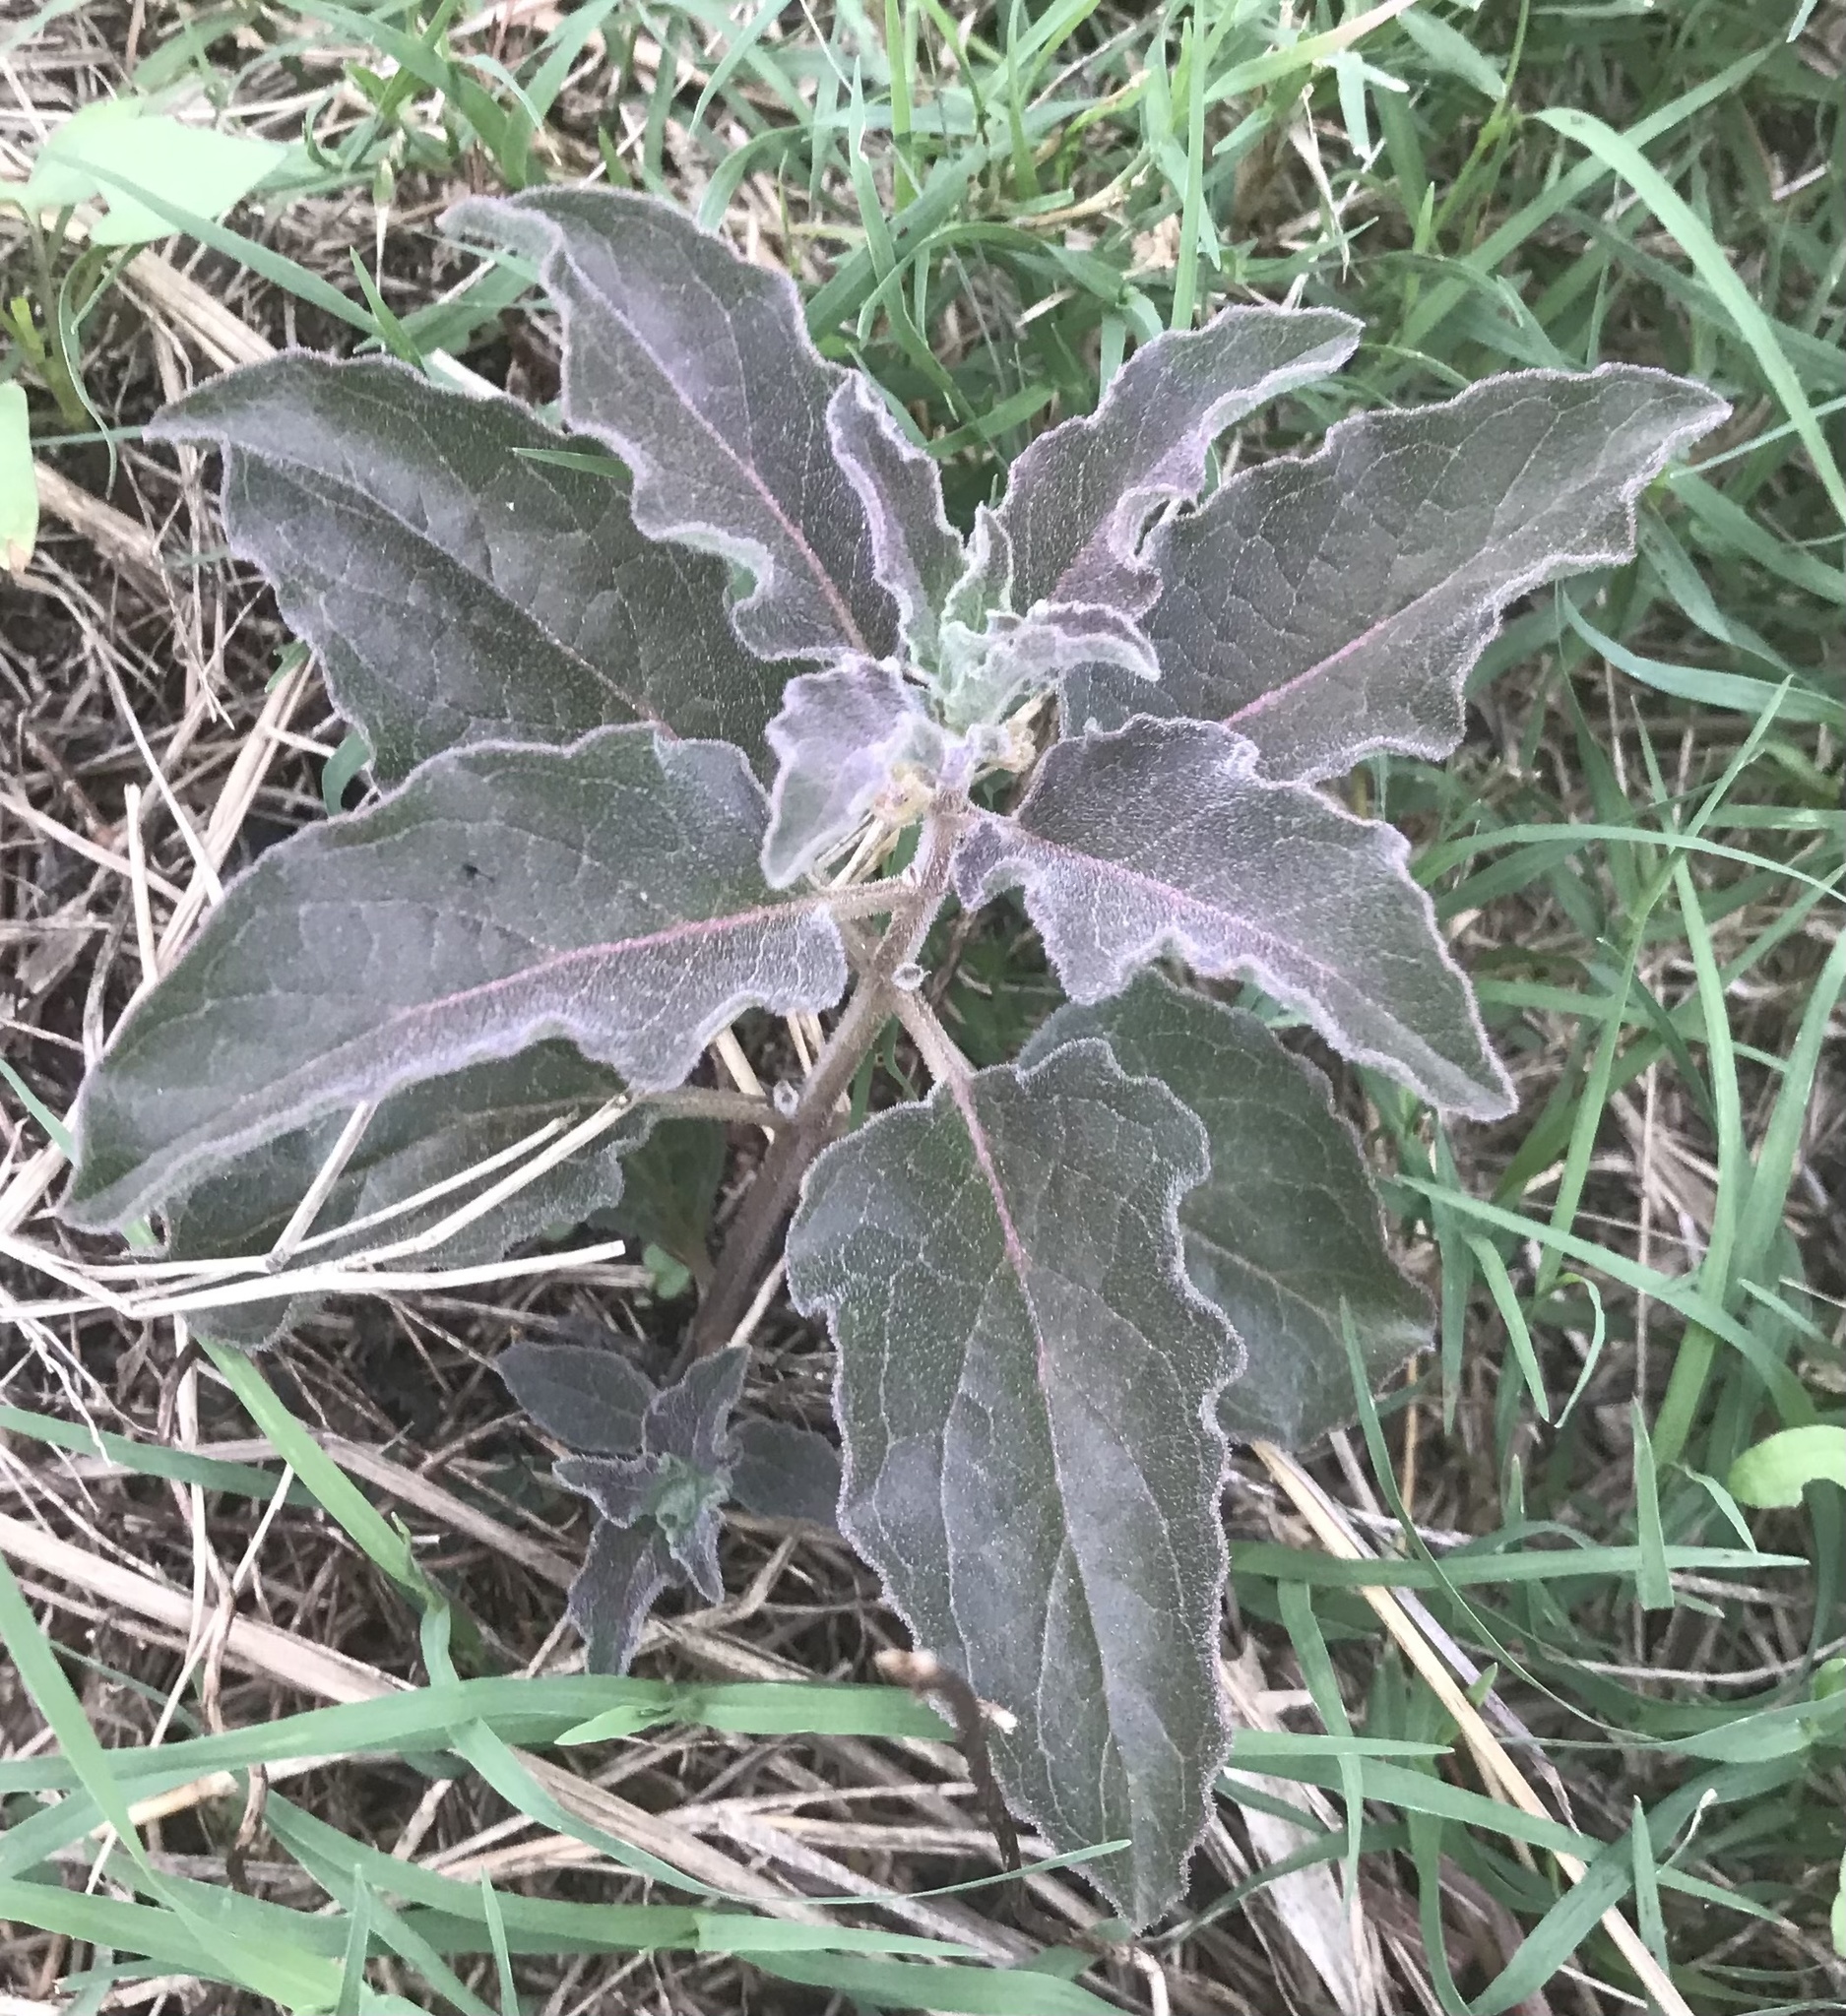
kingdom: Plantae
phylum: Tracheophyta
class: Magnoliopsida
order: Gentianales
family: Apocynaceae
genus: Asclepias
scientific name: Asclepias oenotheroides
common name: Zizotes milkweed
